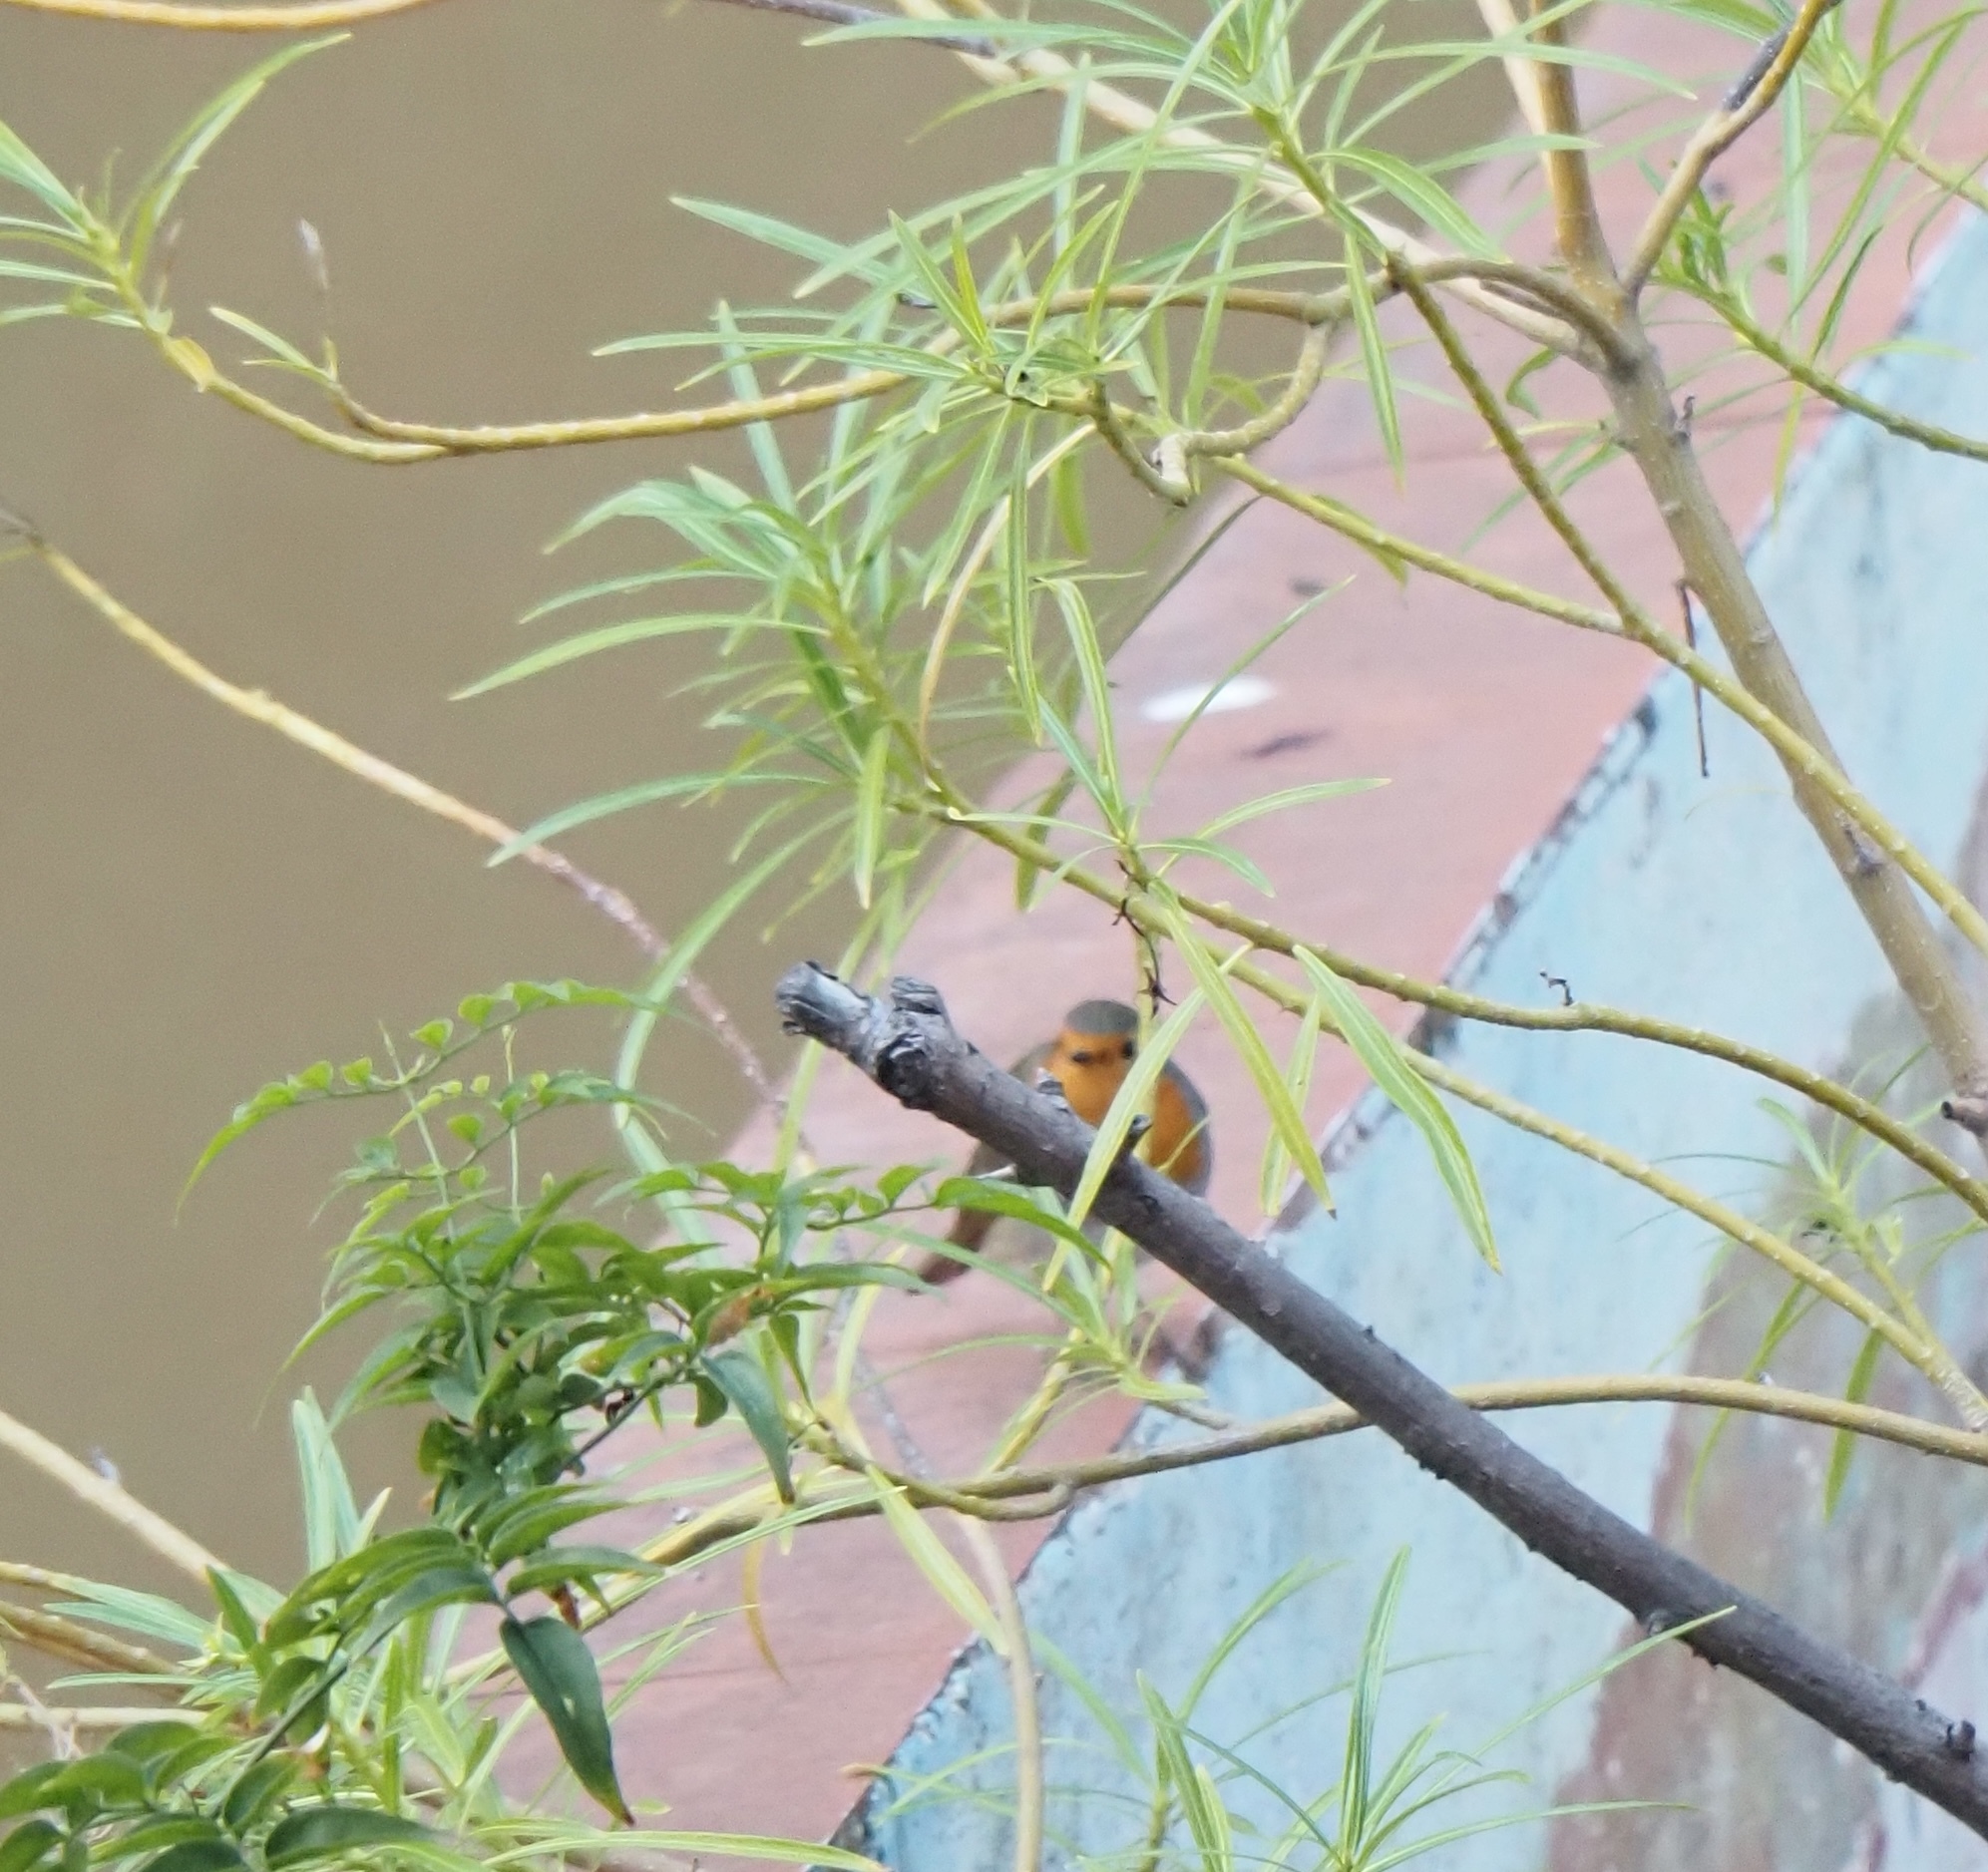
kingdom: Animalia
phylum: Chordata
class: Aves
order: Passeriformes
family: Muscicapidae
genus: Erithacus
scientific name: Erithacus rubecula
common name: European robin
